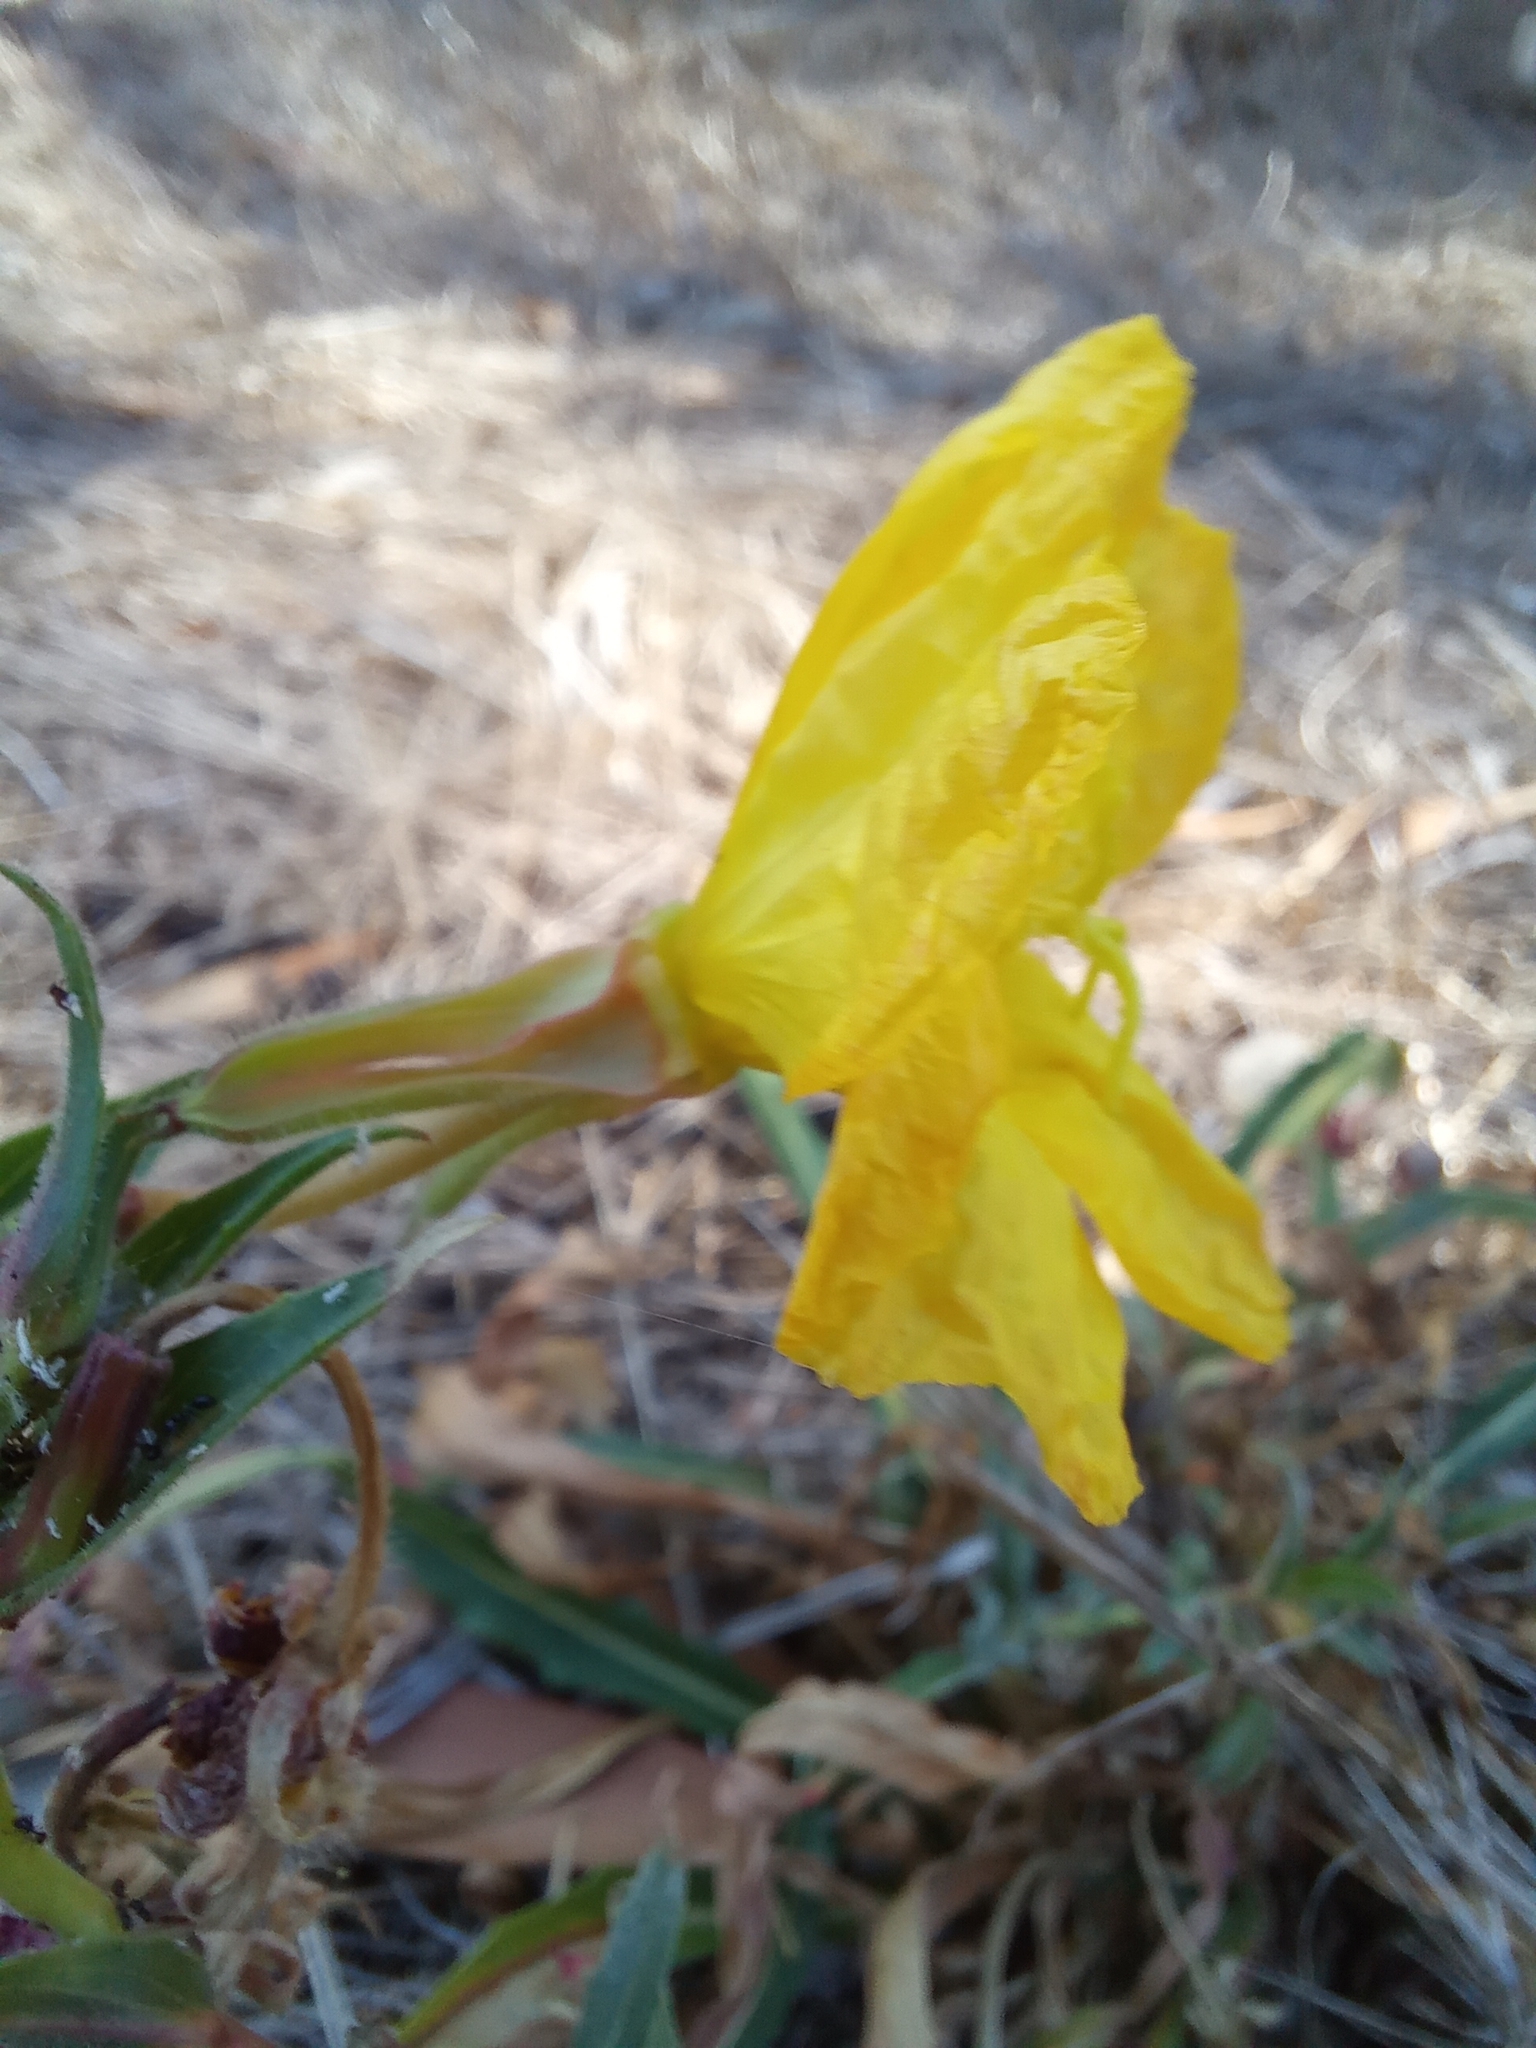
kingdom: Plantae
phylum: Tracheophyta
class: Magnoliopsida
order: Myrtales
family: Onagraceae
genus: Oenothera
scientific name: Oenothera stricta
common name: Fragrant evening-primrose
